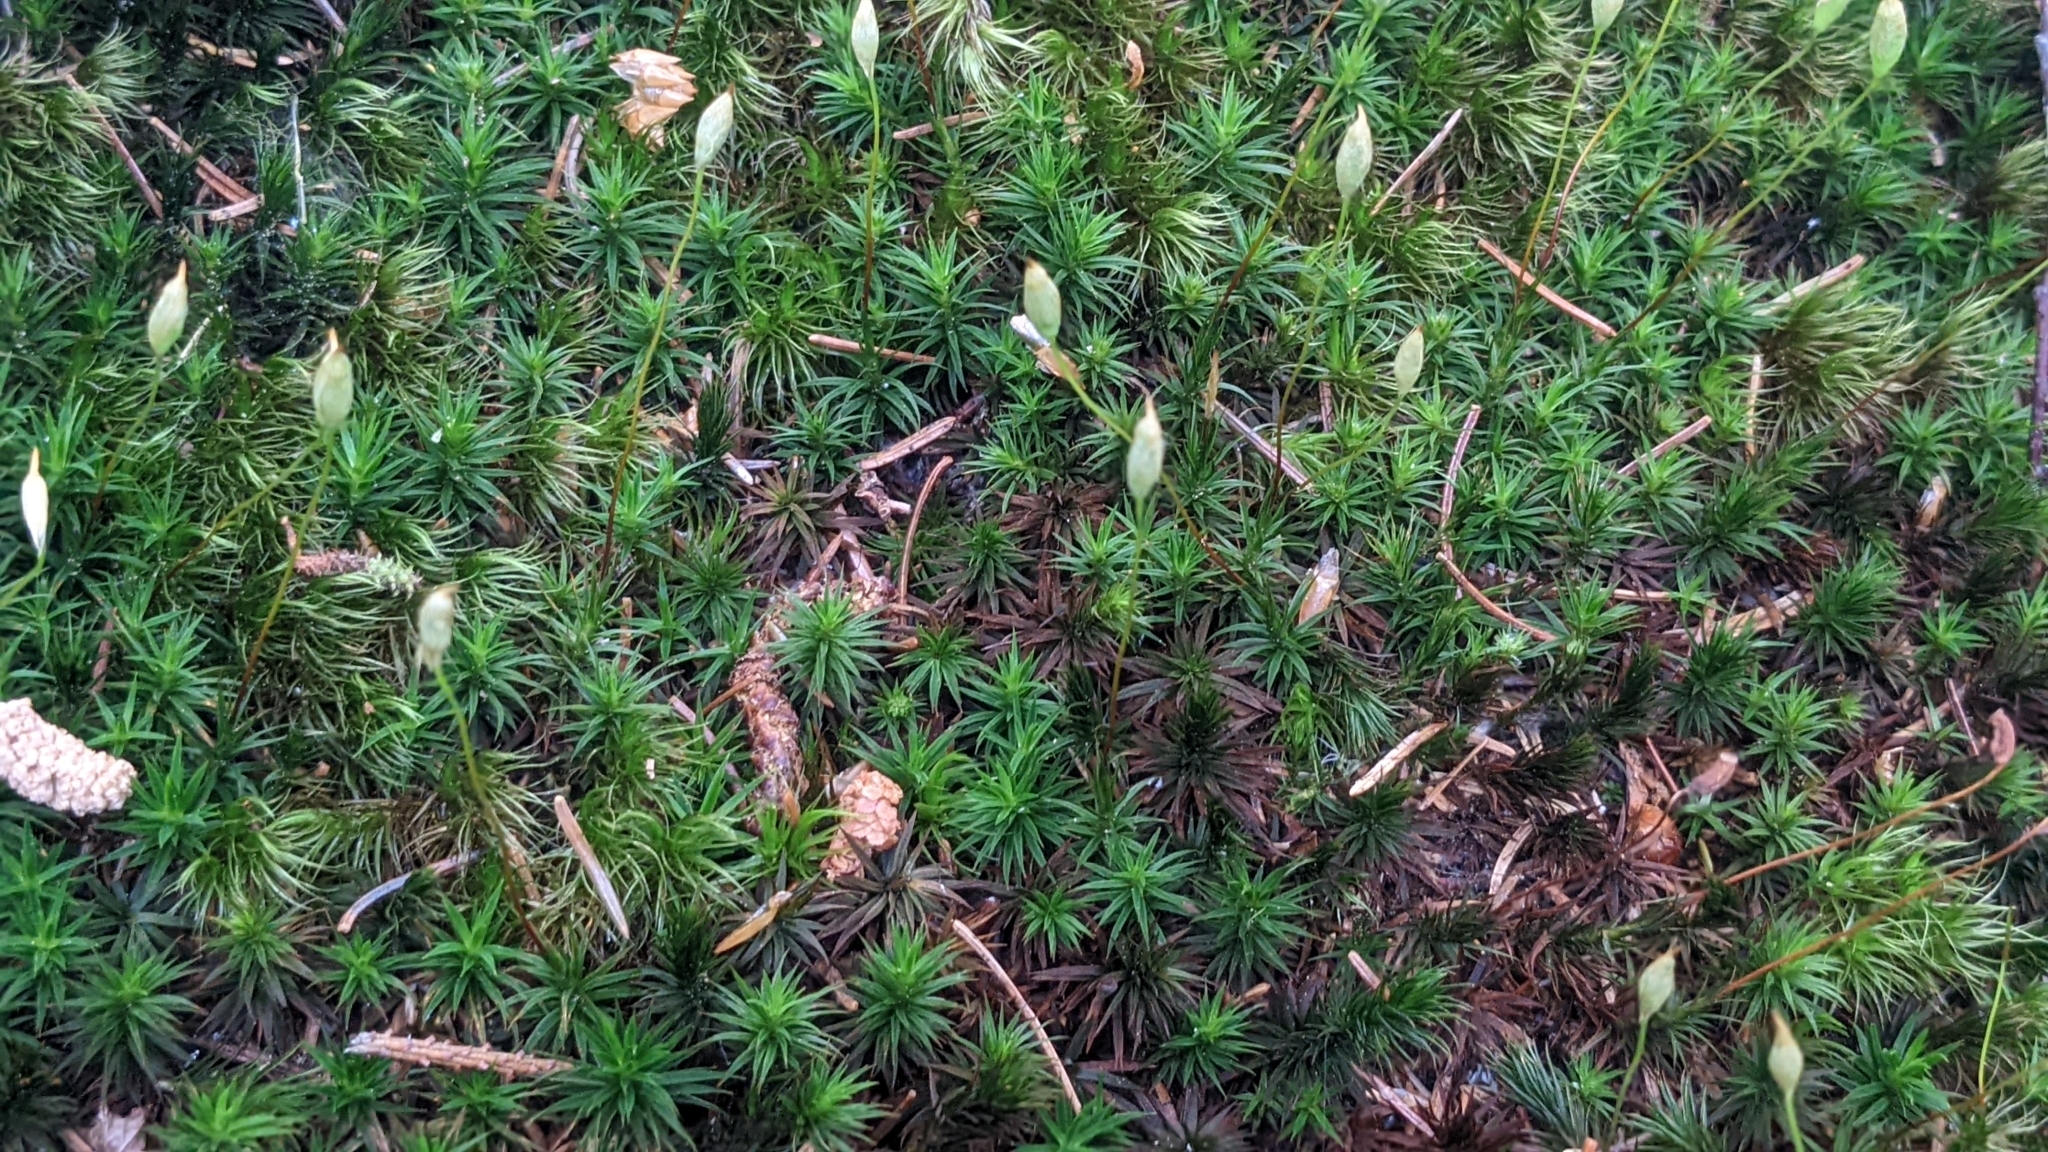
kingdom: Plantae
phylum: Bryophyta
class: Polytrichopsida
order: Polytrichales
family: Polytrichaceae
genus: Polytrichum
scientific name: Polytrichum formosum
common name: Bank haircap moss
